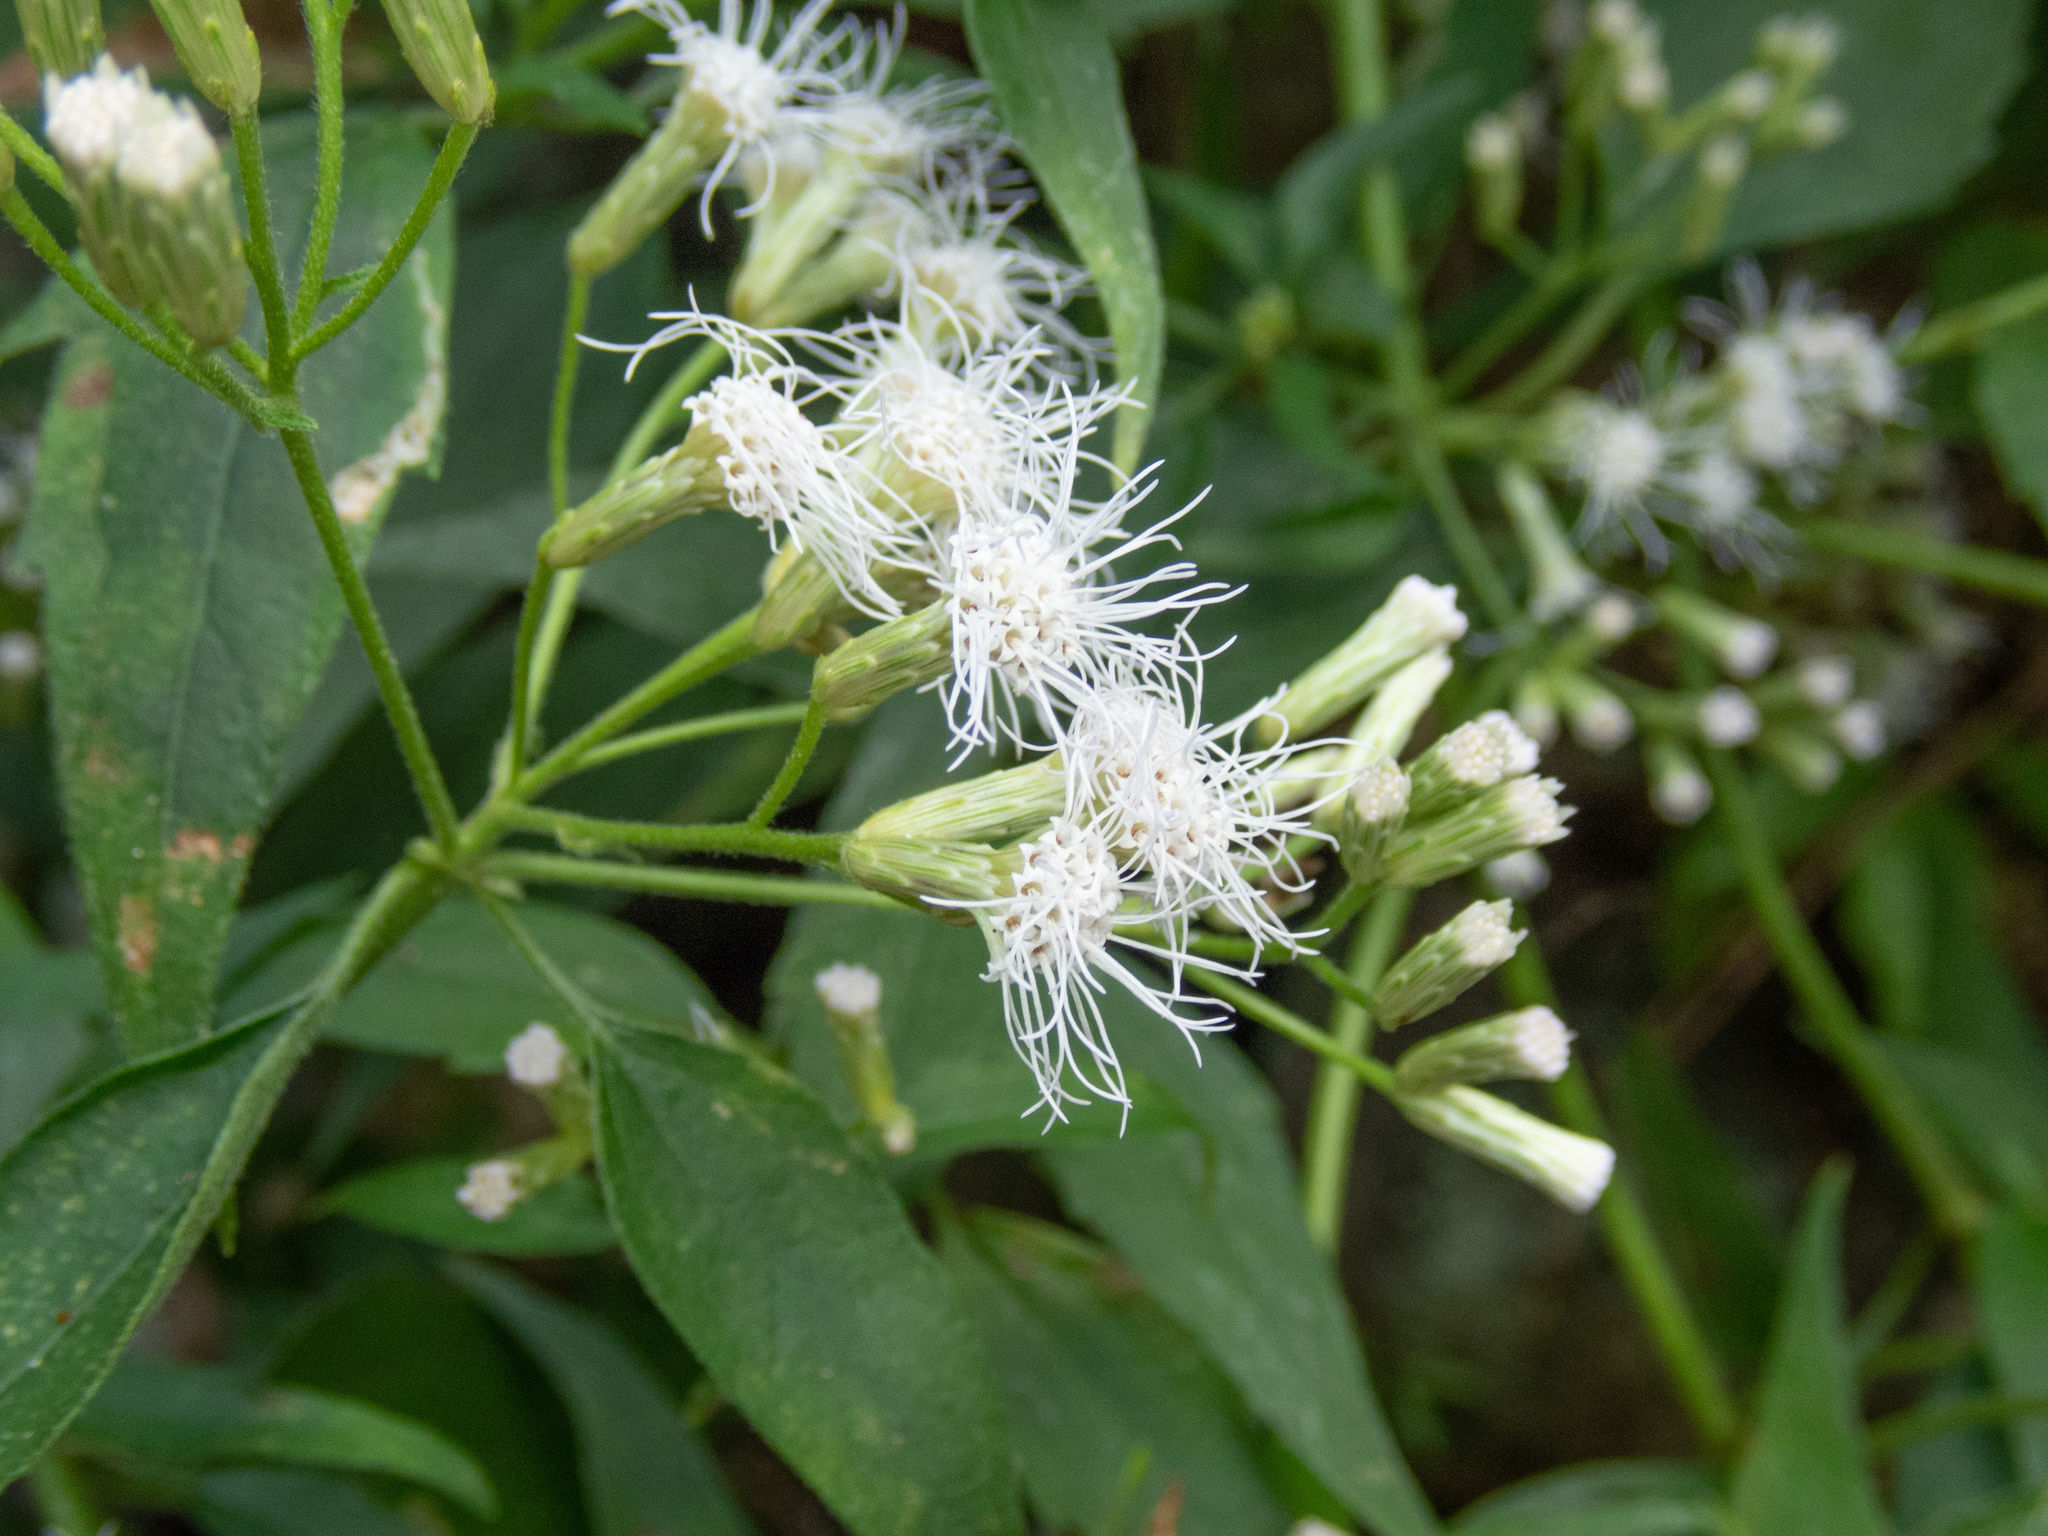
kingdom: Plantae
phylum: Tracheophyta
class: Magnoliopsida
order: Asterales
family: Asteraceae
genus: Chromolaena
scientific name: Chromolaena odorata
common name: Siamweed
